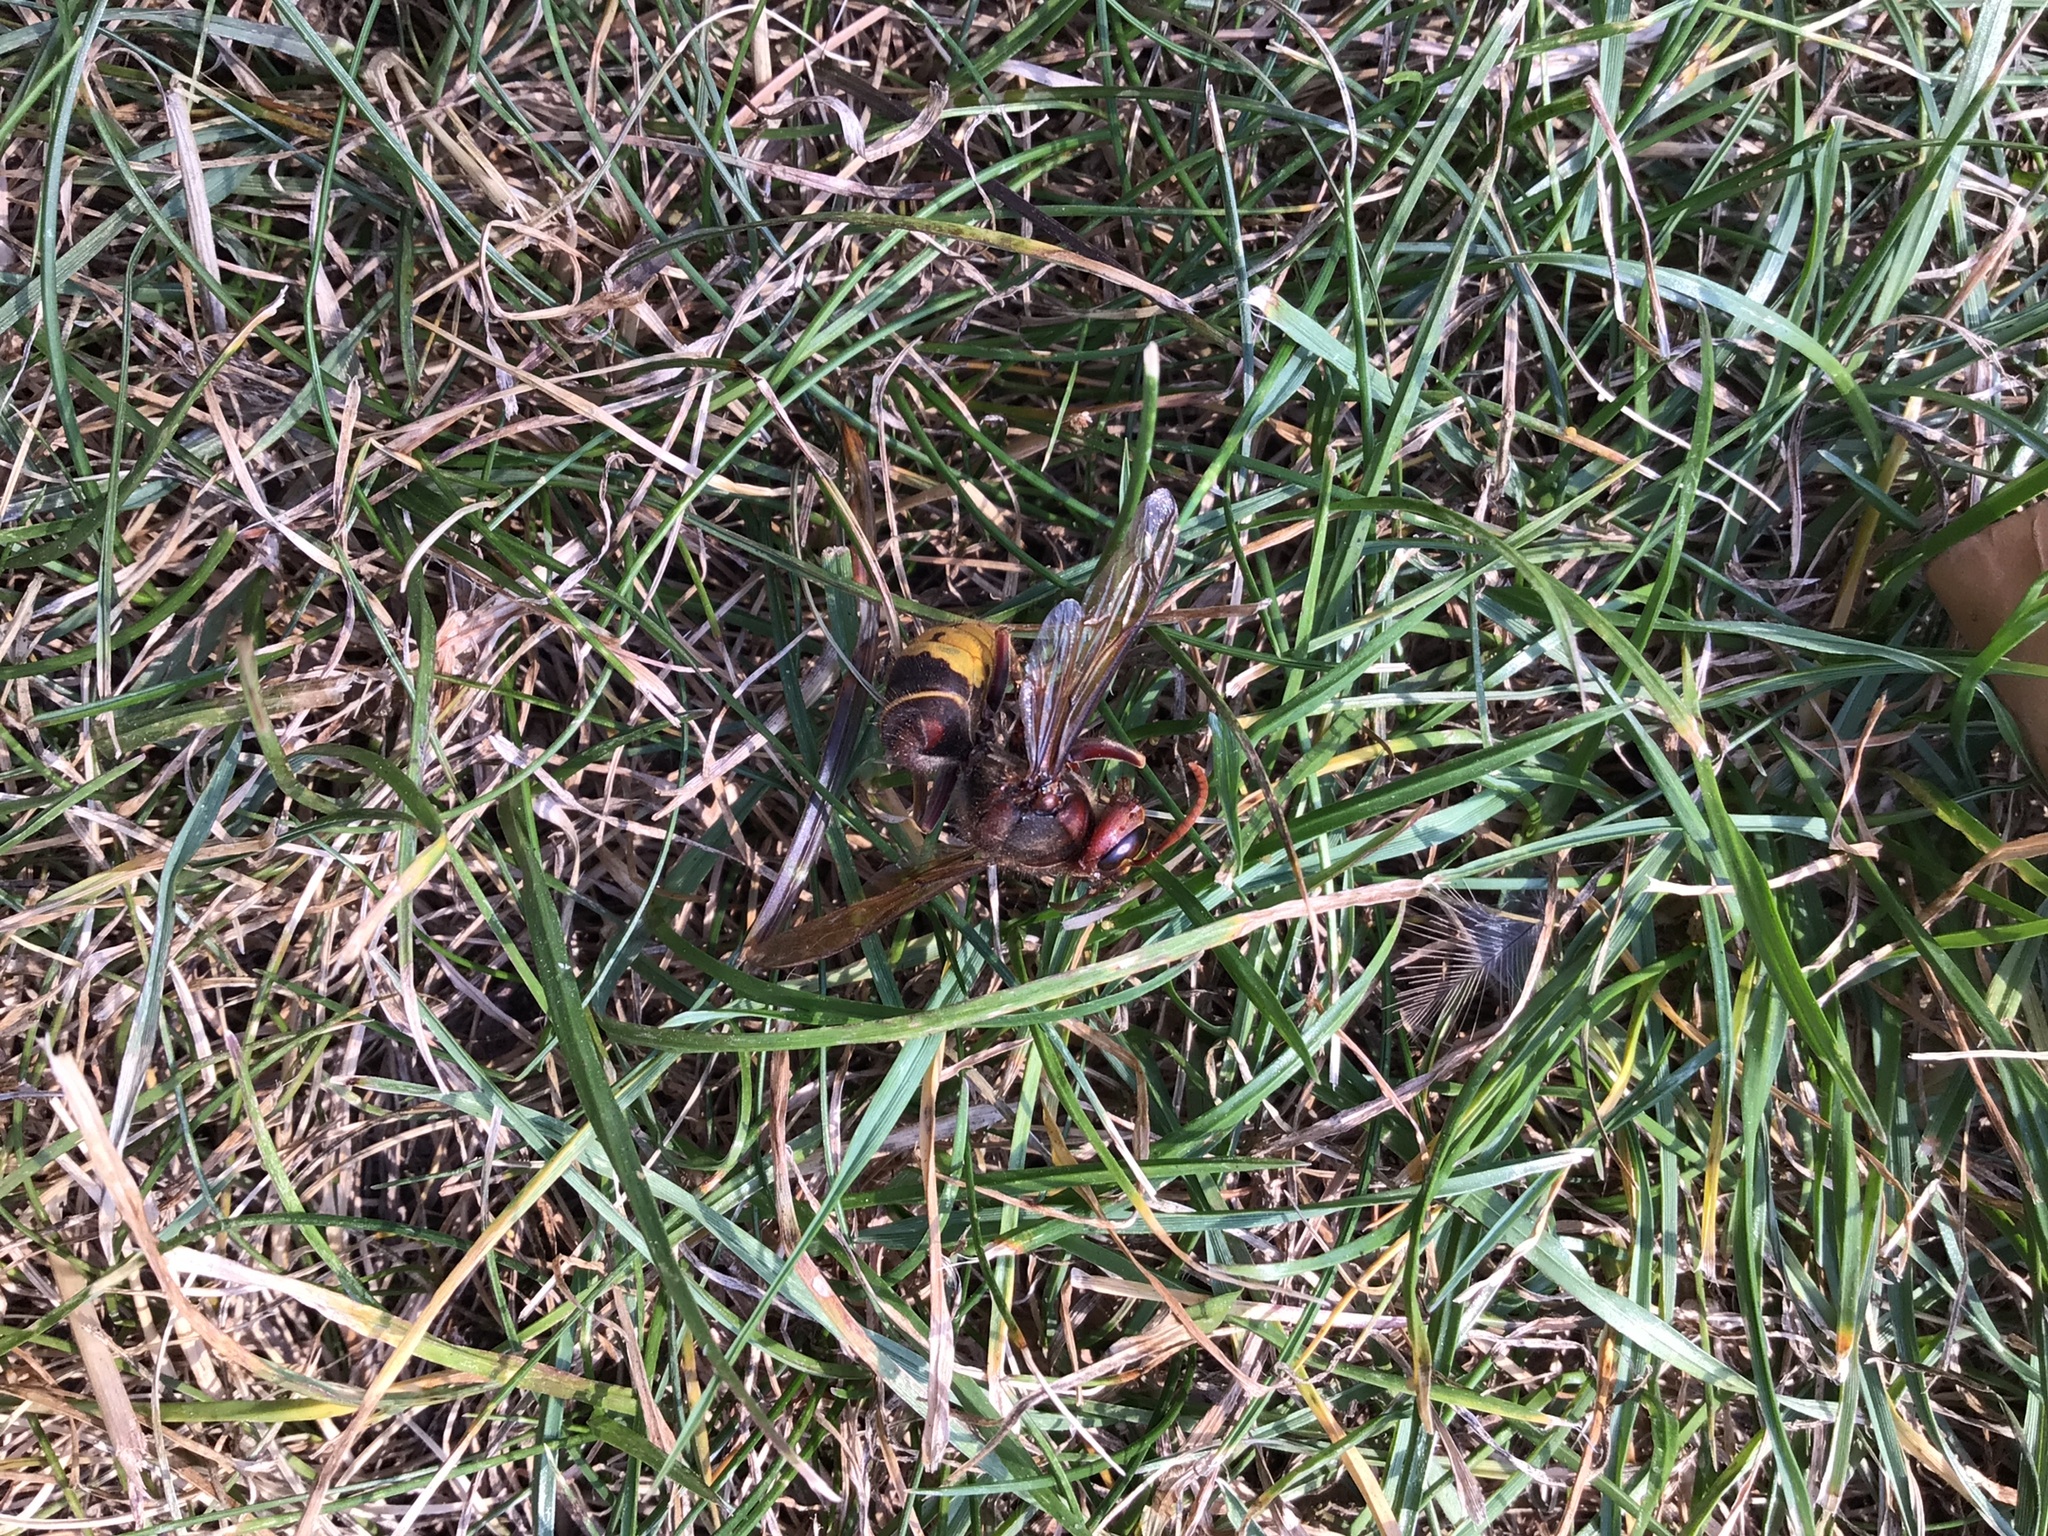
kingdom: Animalia
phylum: Arthropoda
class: Insecta
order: Hymenoptera
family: Vespidae
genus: Vespa
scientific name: Vespa crabro
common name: Hornet
